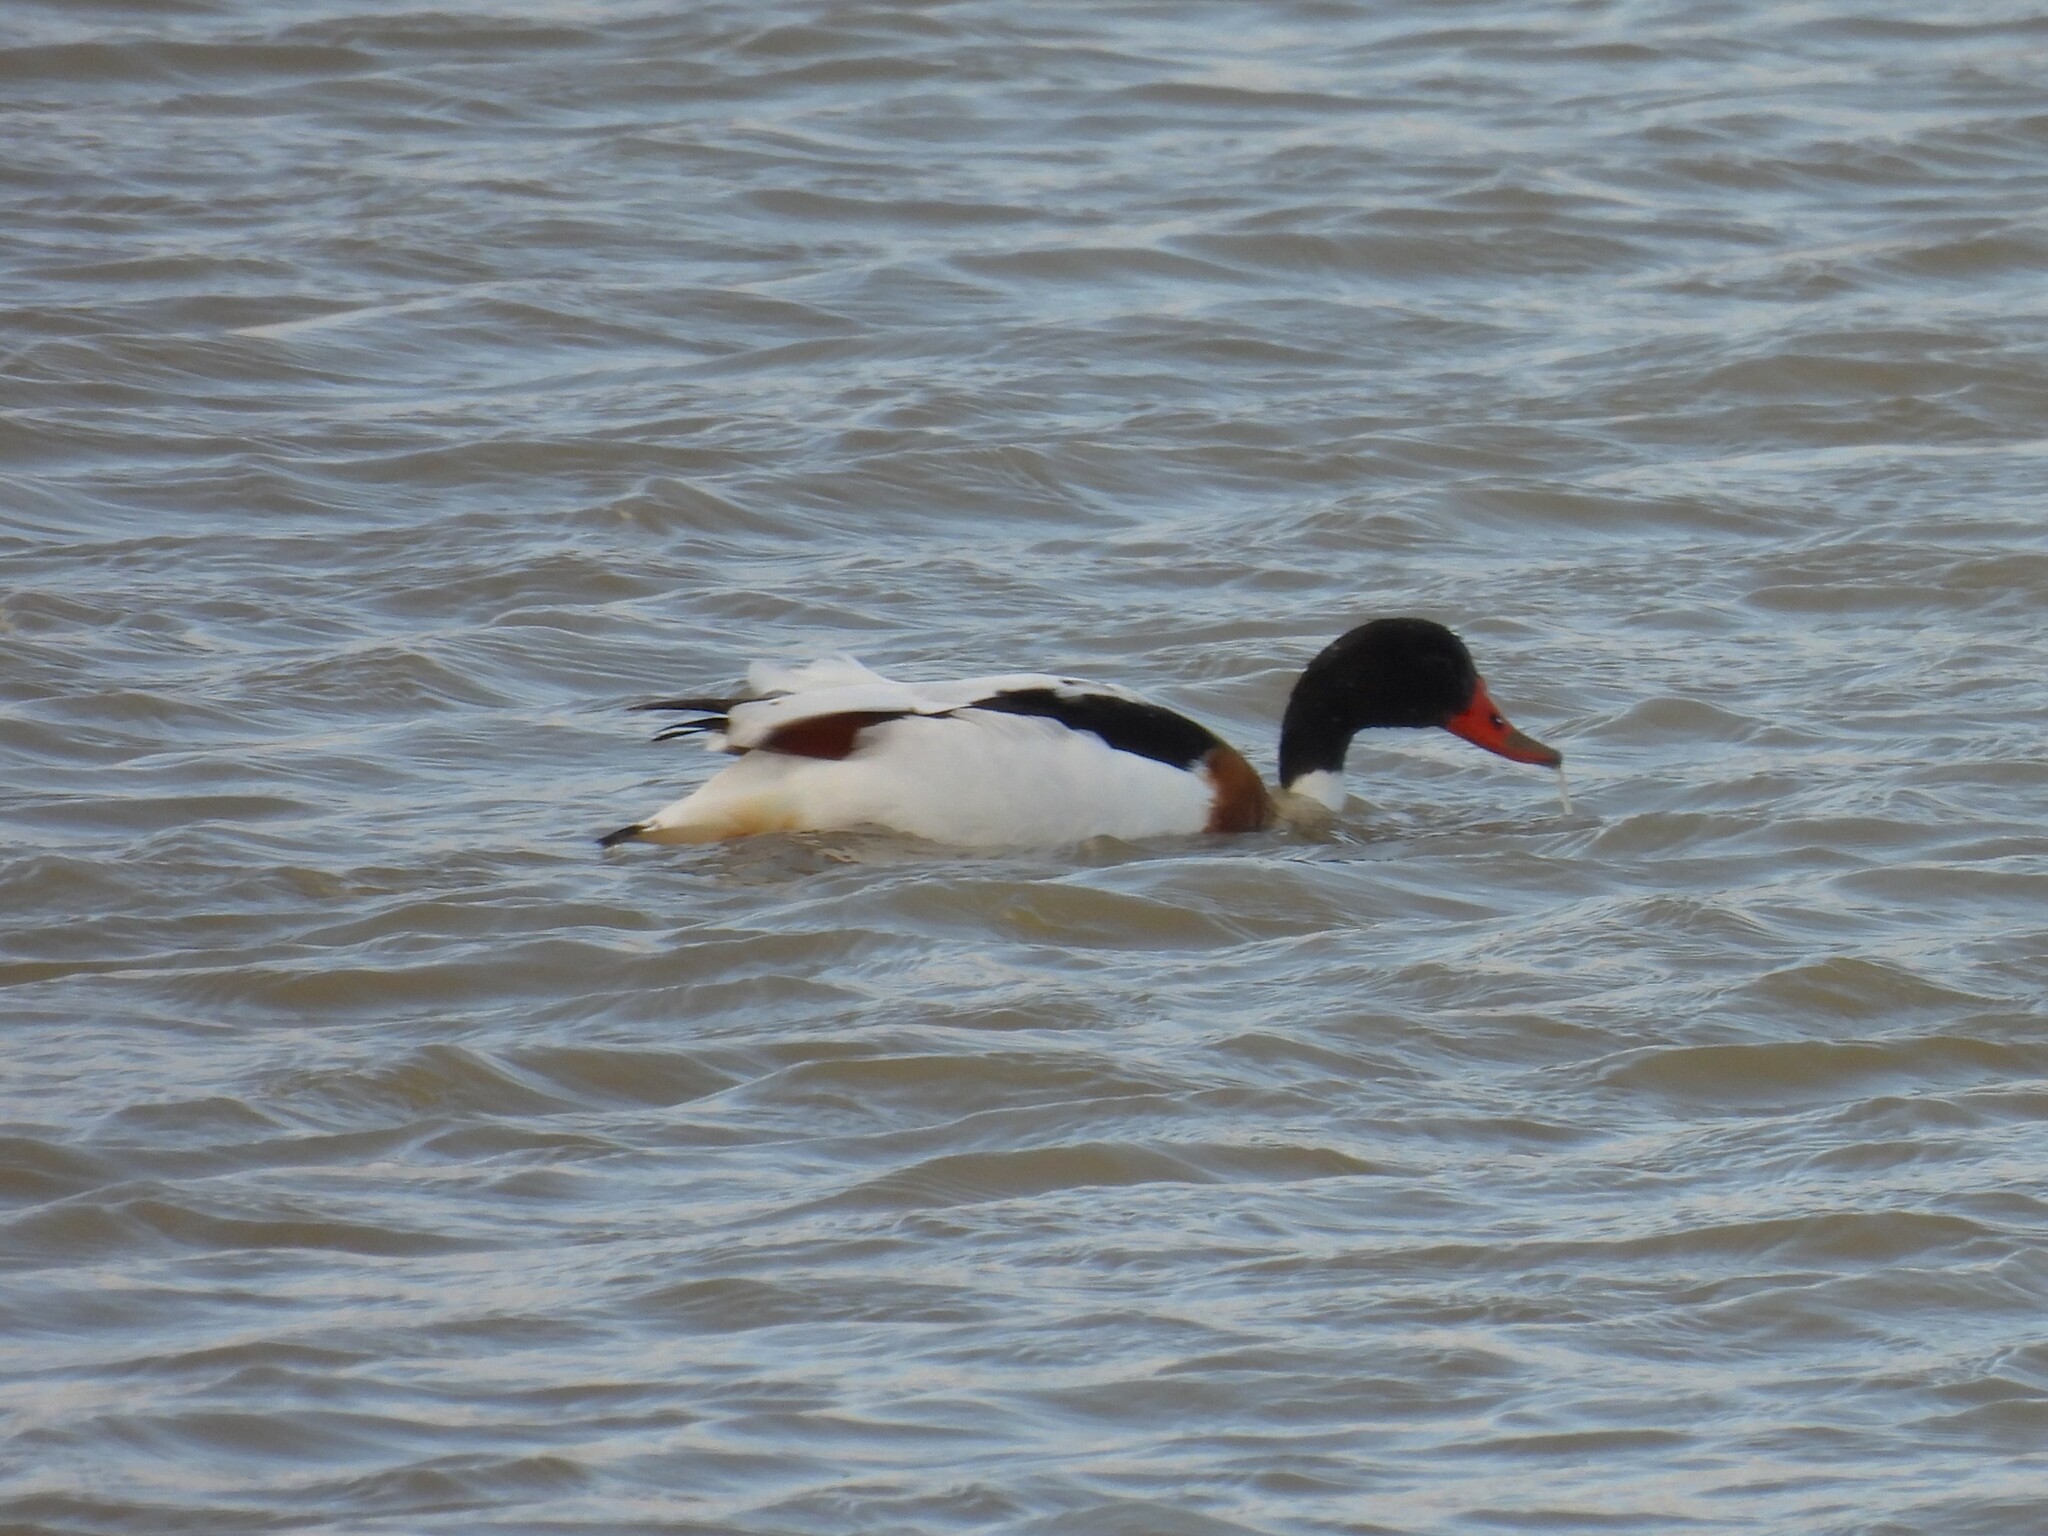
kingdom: Animalia
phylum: Chordata
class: Aves
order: Anseriformes
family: Anatidae
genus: Tadorna
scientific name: Tadorna tadorna
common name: Common shelduck
